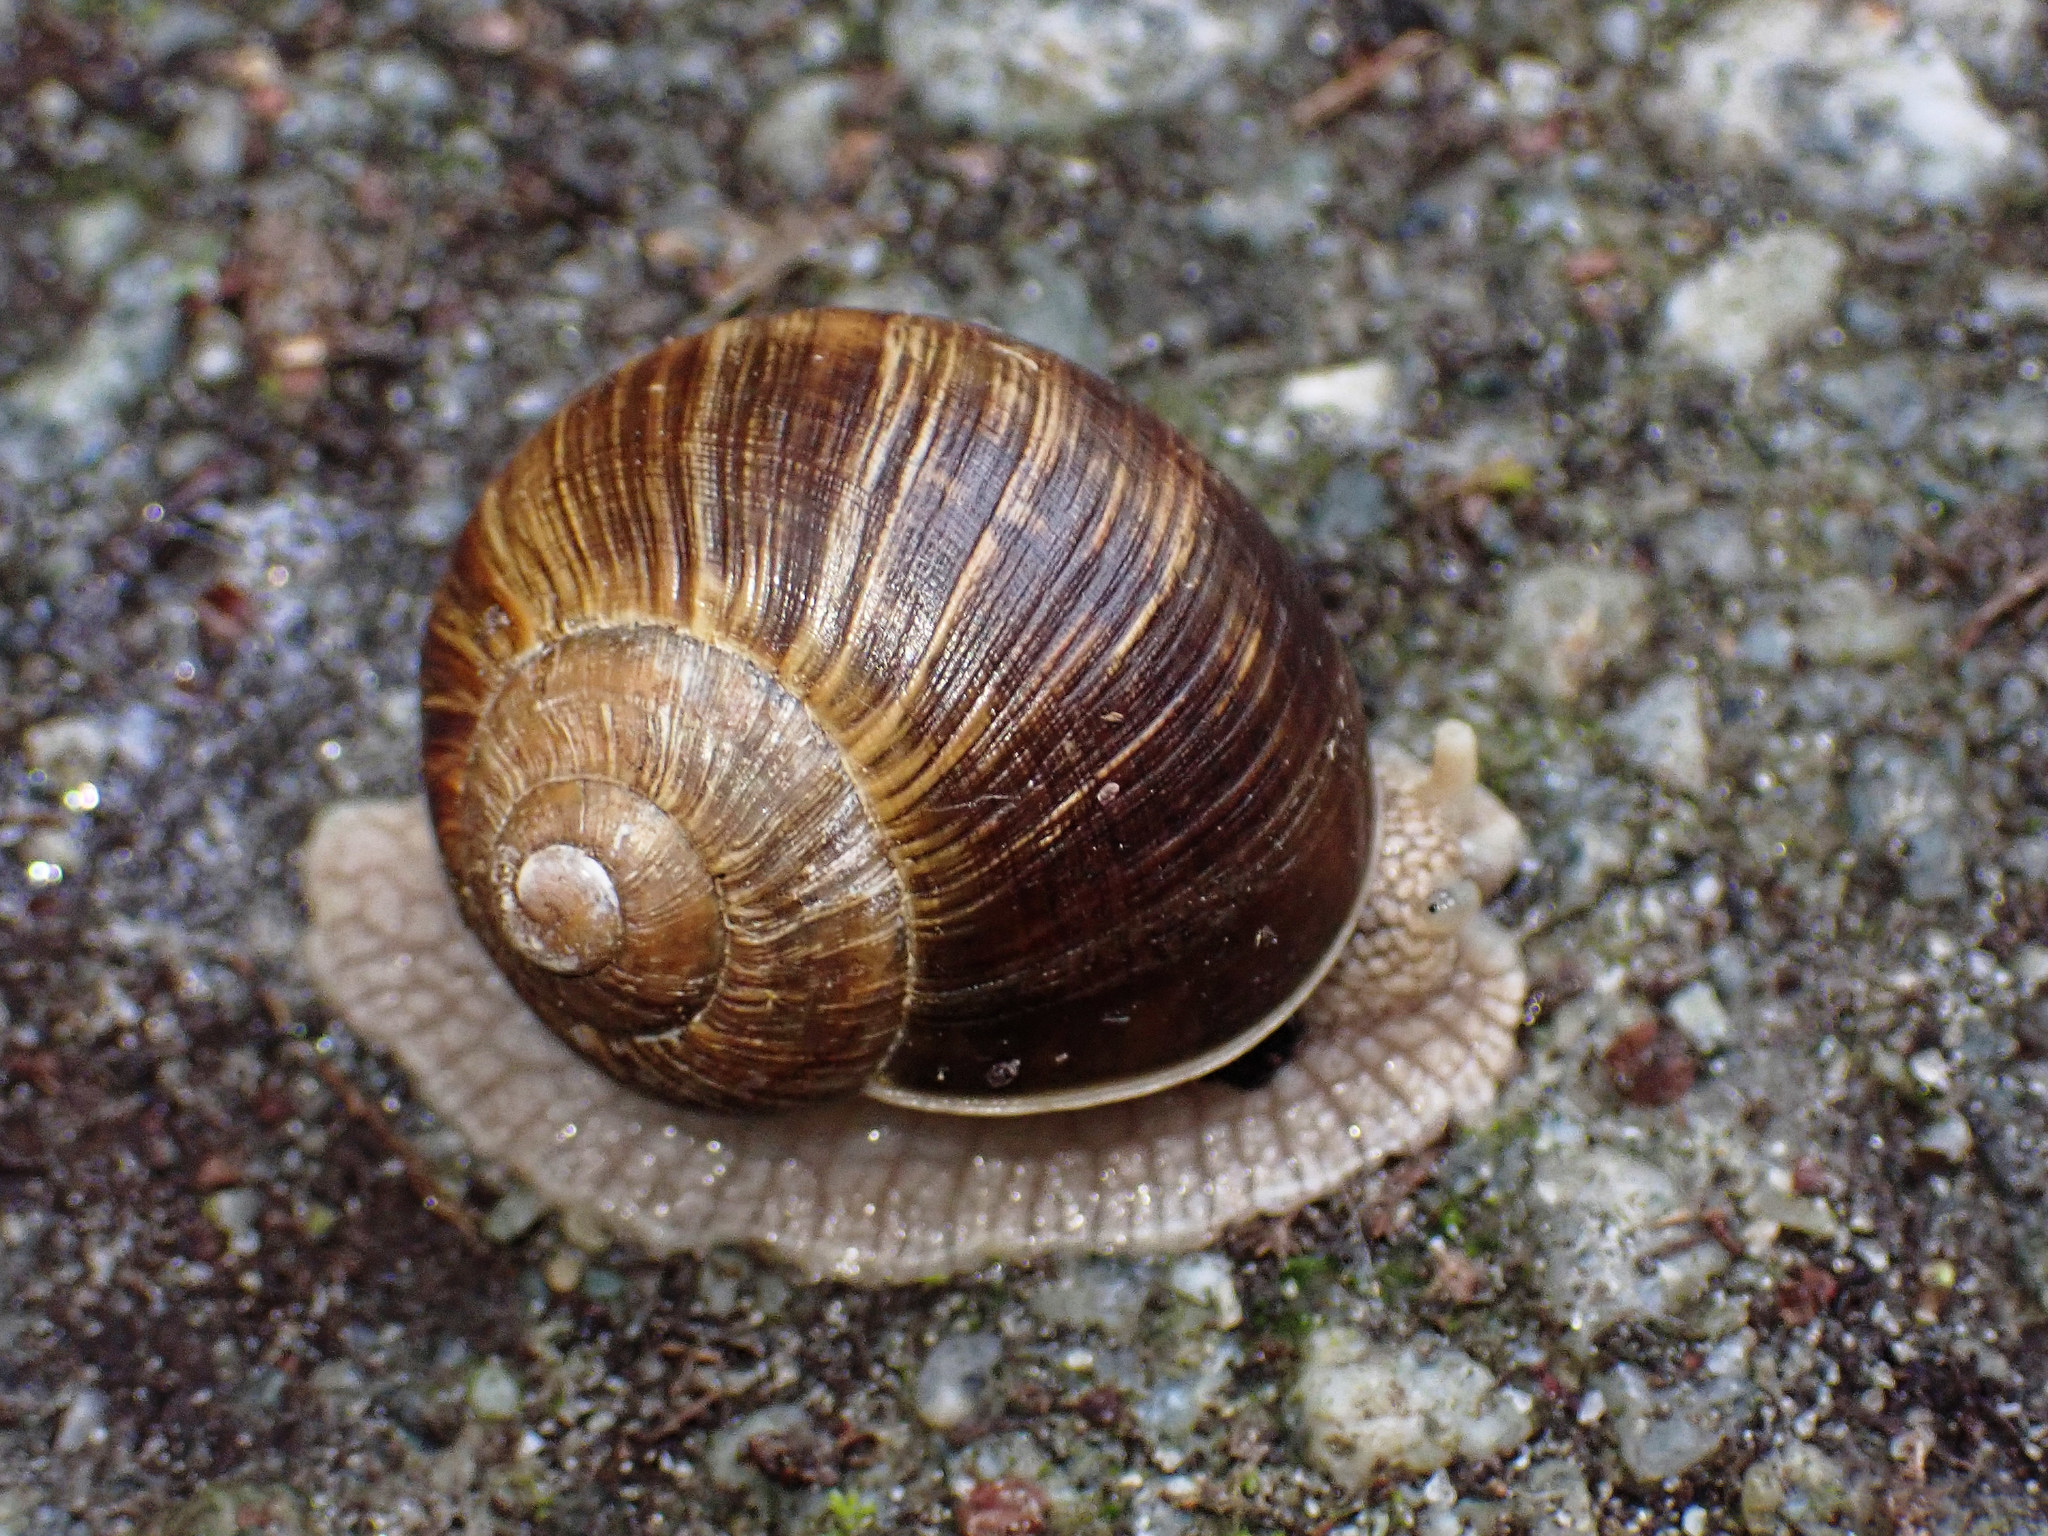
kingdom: Animalia
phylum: Mollusca
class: Gastropoda
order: Stylommatophora
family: Helicidae
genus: Helix
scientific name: Helix pomatia
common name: Roman snail
